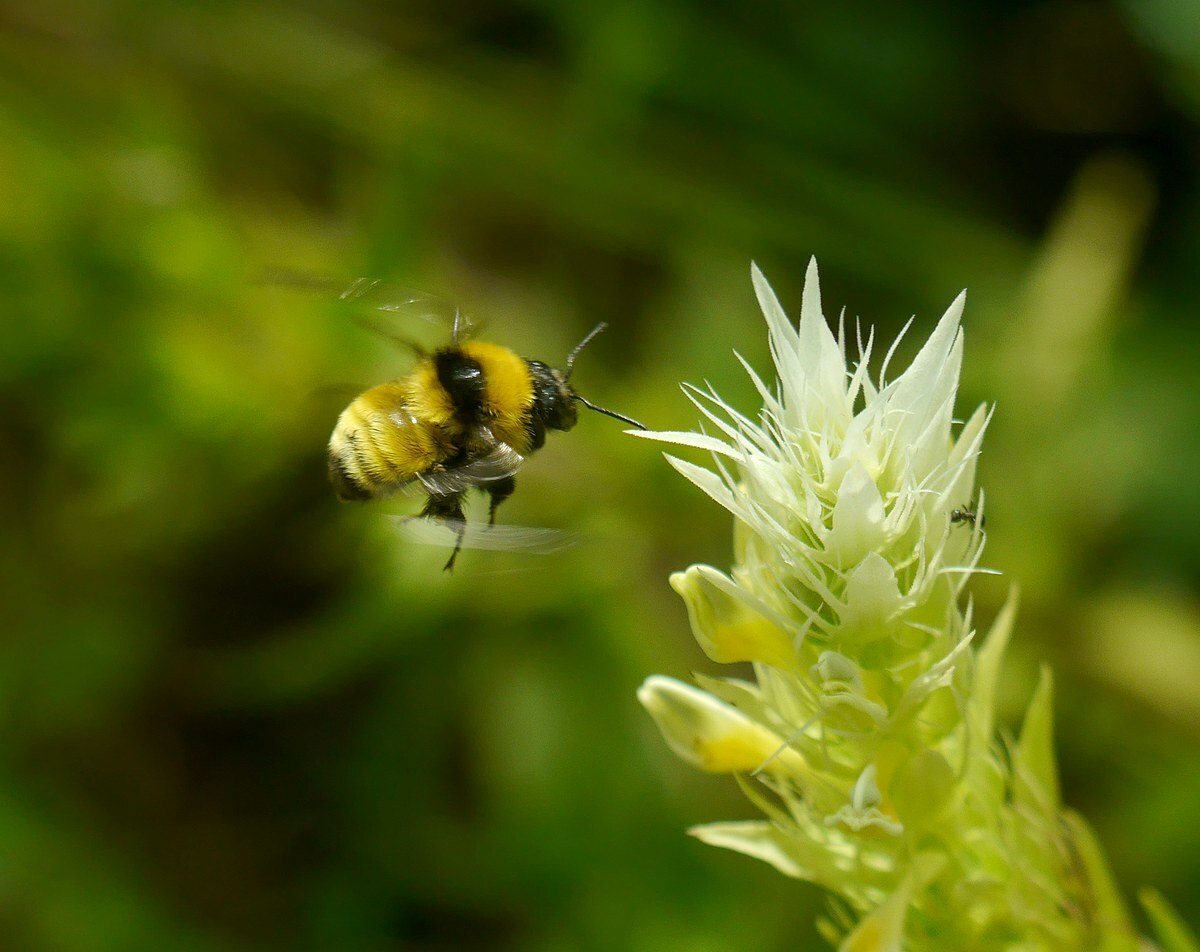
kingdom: Animalia
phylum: Arthropoda
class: Insecta
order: Hymenoptera
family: Apidae
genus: Bombus
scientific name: Bombus zonatus
